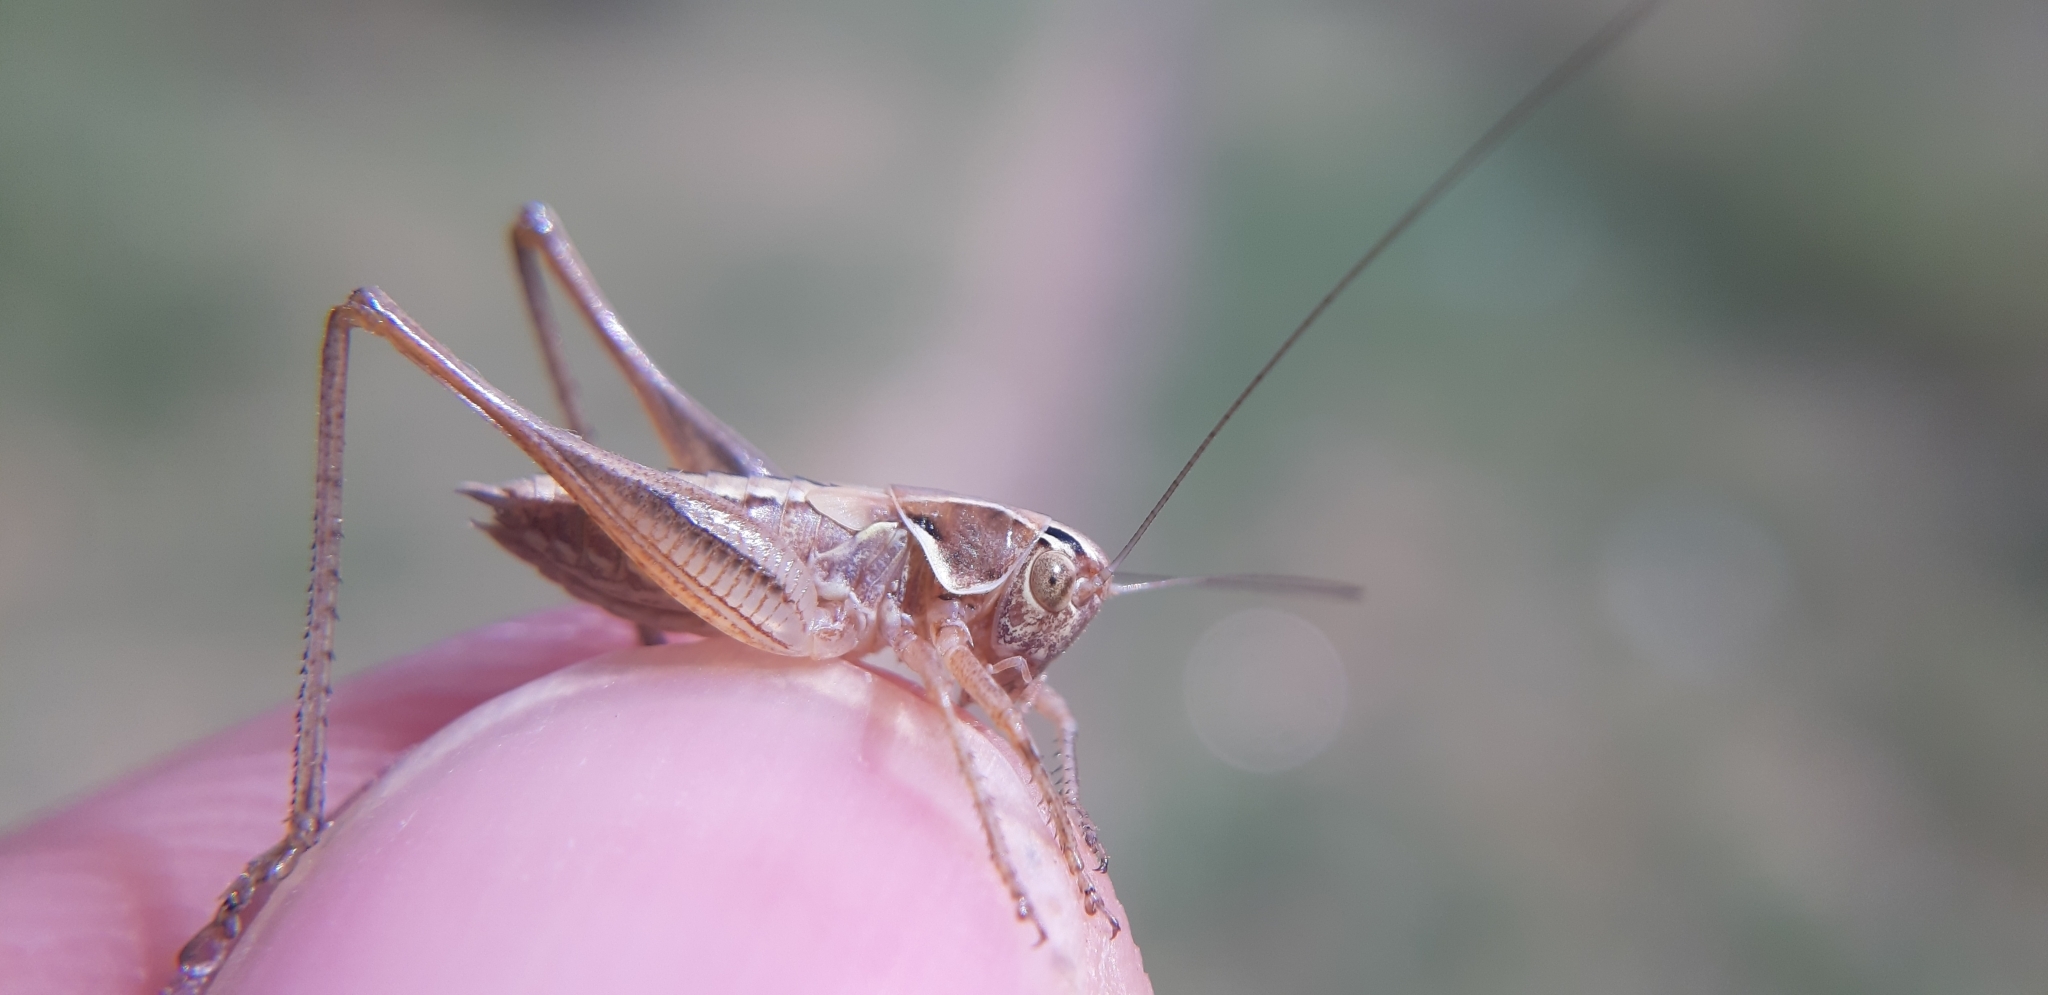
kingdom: Animalia
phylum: Arthropoda
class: Insecta
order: Orthoptera
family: Tettigoniidae
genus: Tessellana
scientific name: Tessellana tessellata
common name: Grasshopper
